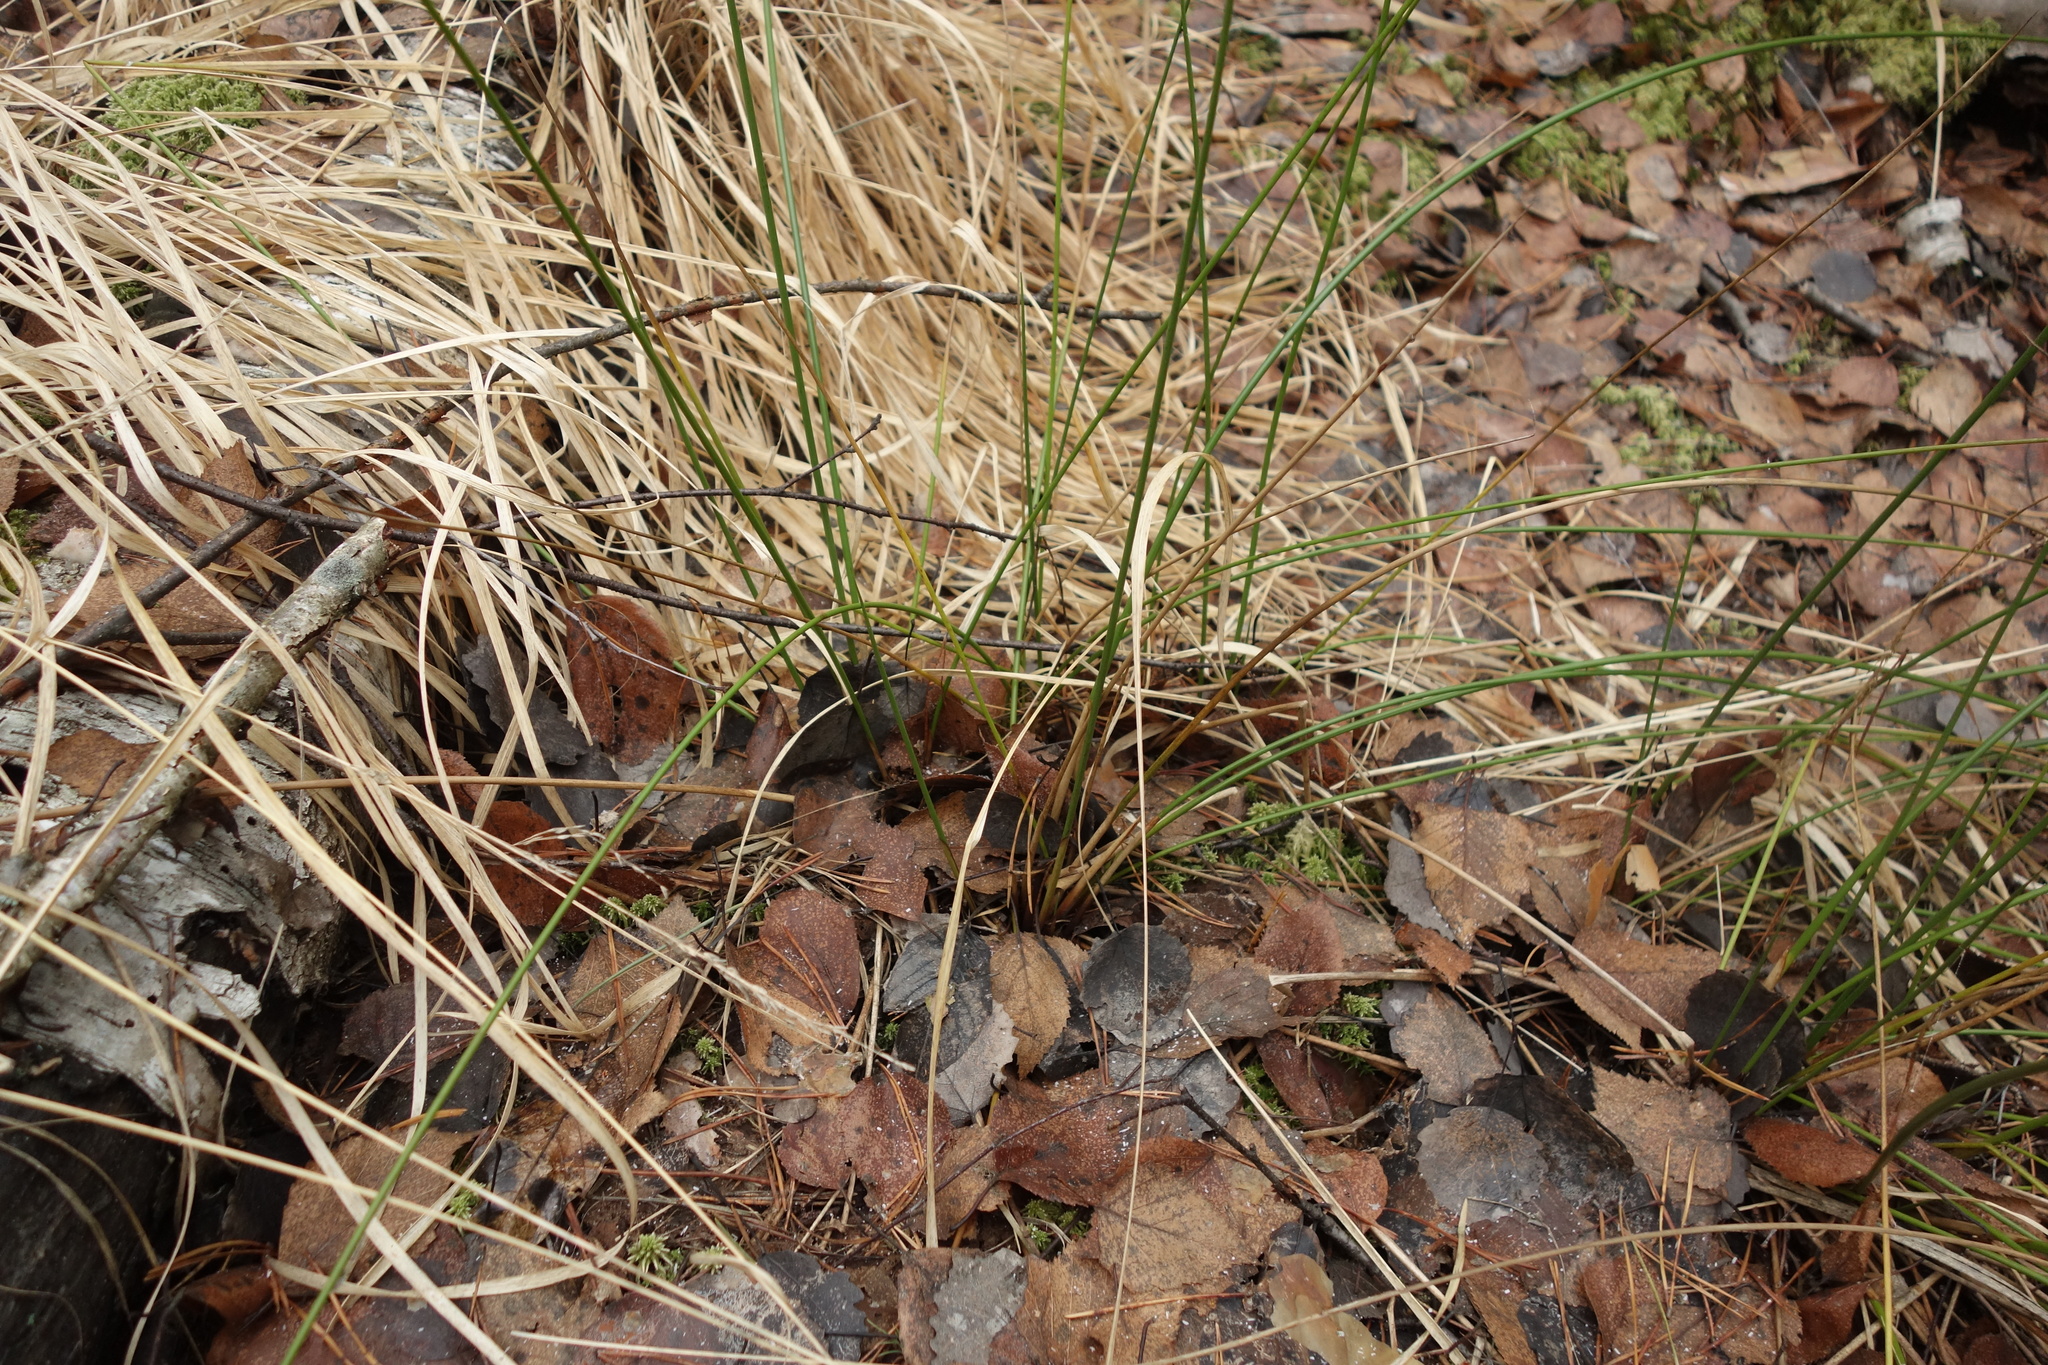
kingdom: Plantae
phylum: Tracheophyta
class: Liliopsida
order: Poales
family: Juncaceae
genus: Juncus
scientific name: Juncus effusus
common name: Soft rush
